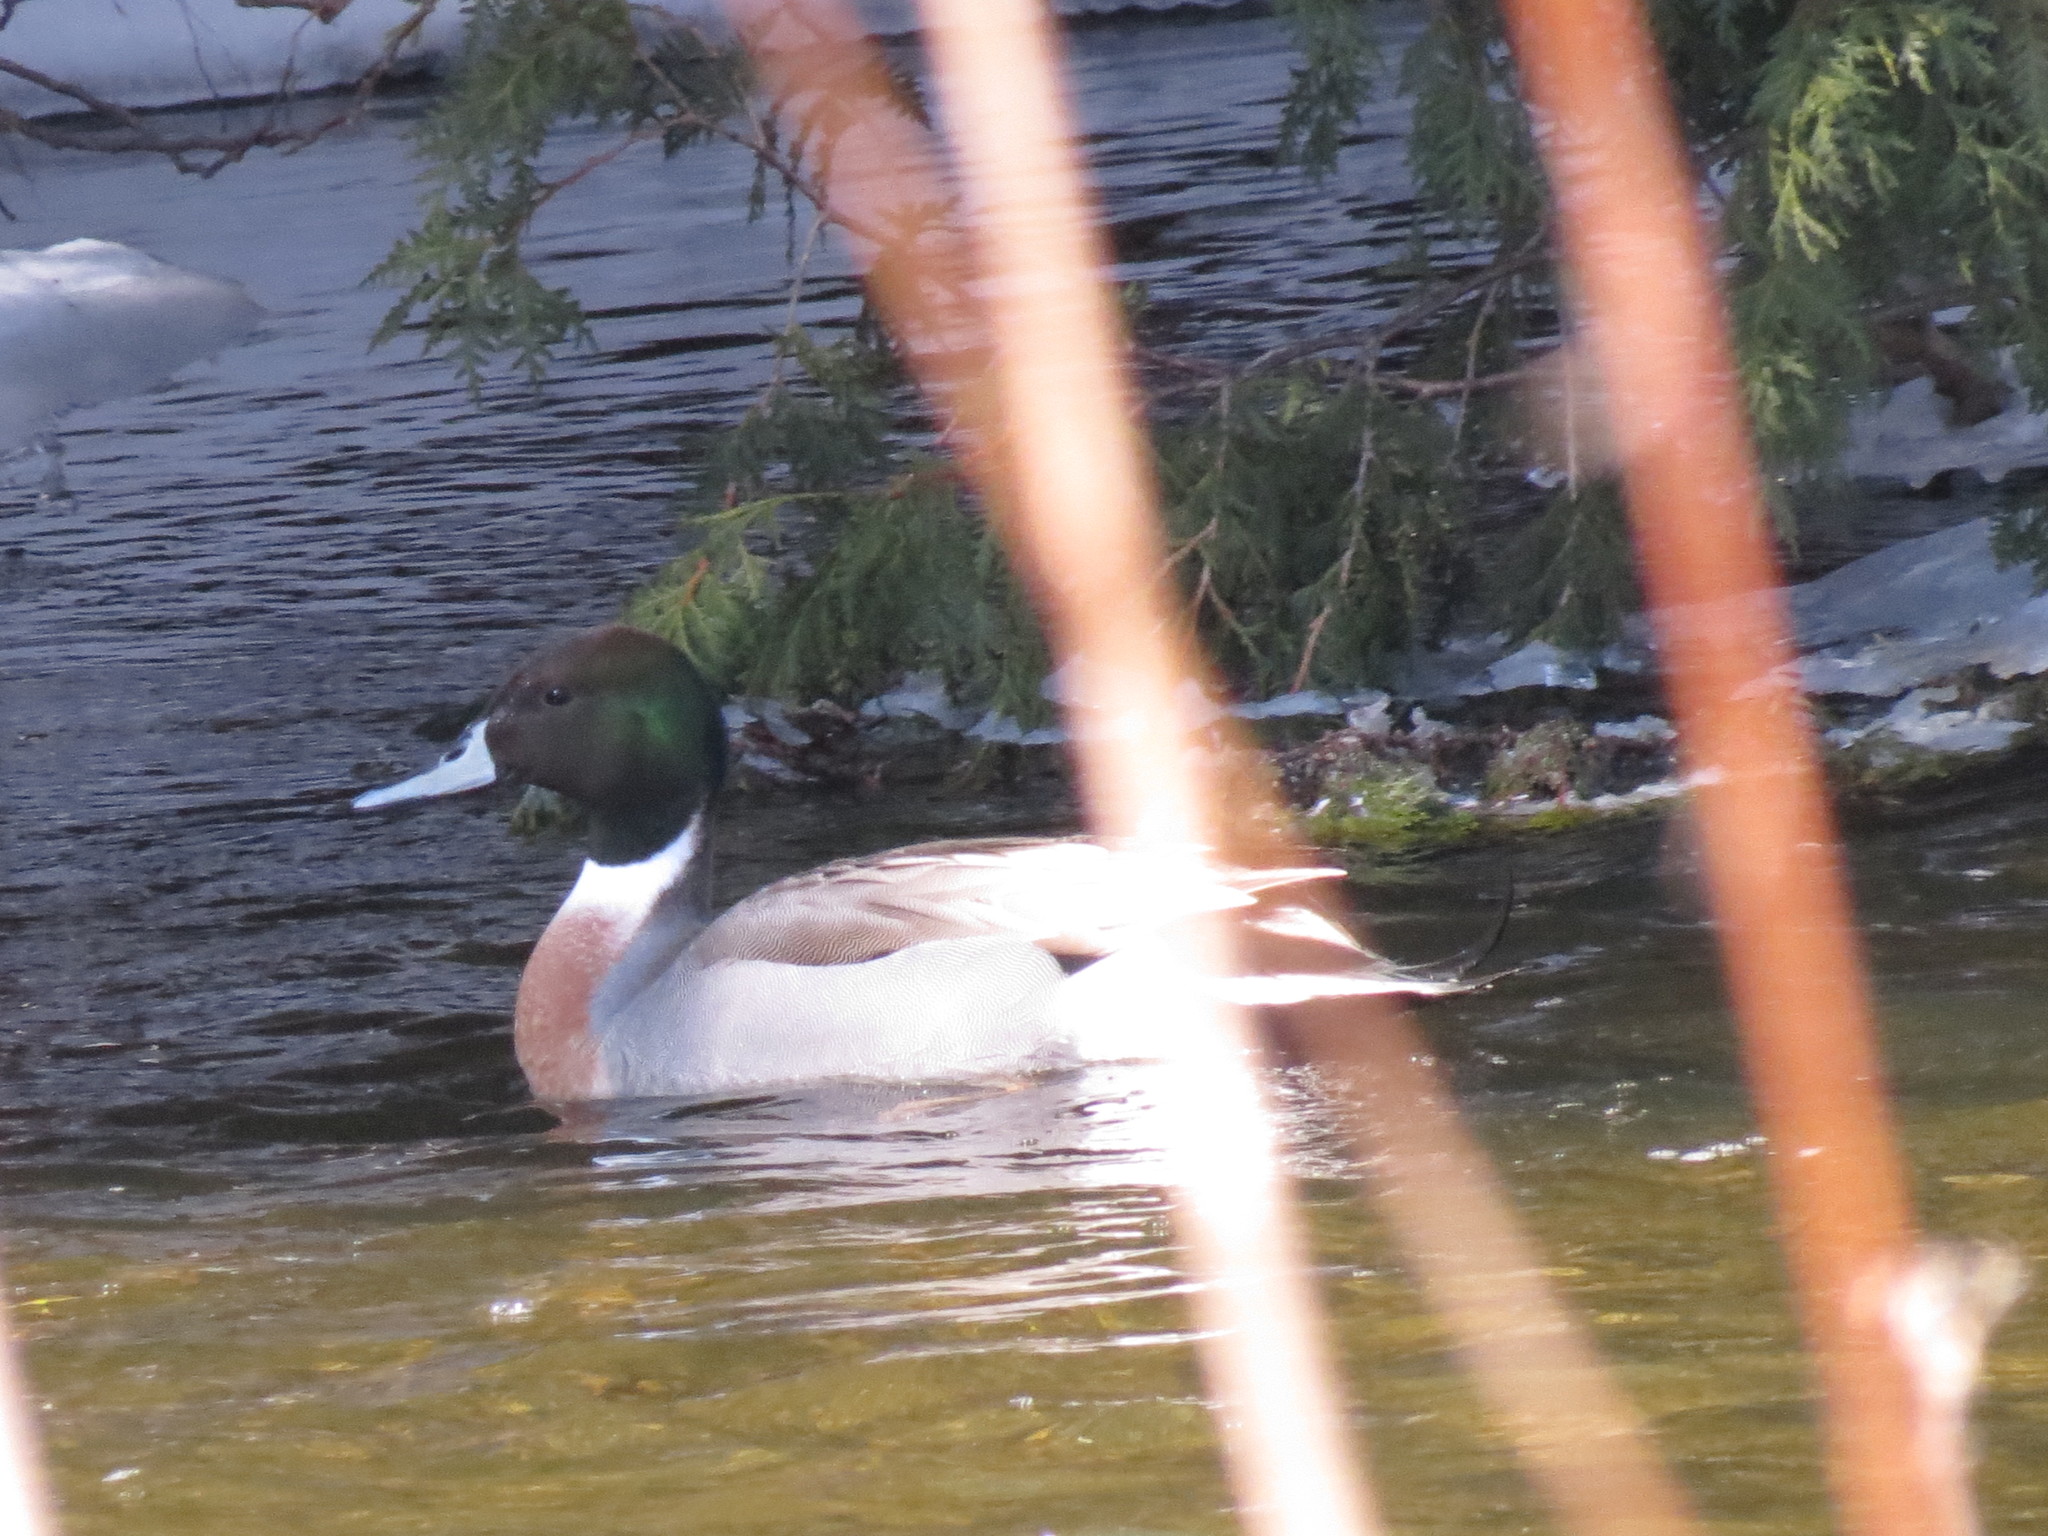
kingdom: Animalia
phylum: Chordata
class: Aves
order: Anseriformes
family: Anatidae
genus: Anas
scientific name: Anas
